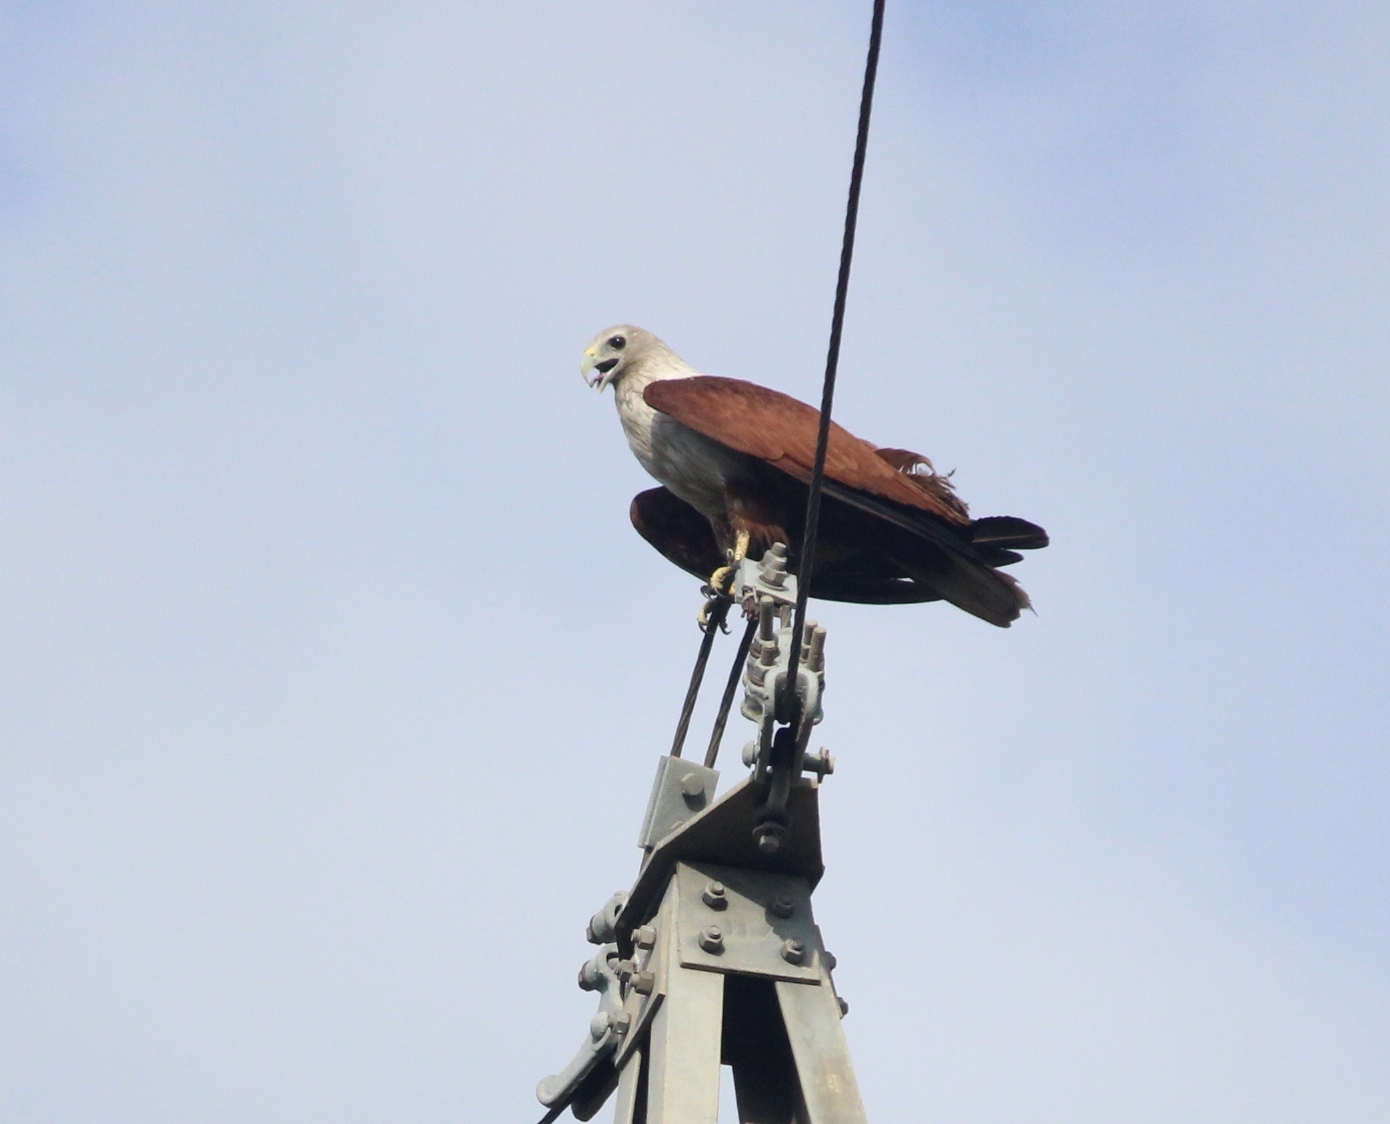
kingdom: Animalia
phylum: Chordata
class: Aves
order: Accipitriformes
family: Accipitridae
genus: Haliastur
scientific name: Haliastur indus
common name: Brahminy kite
